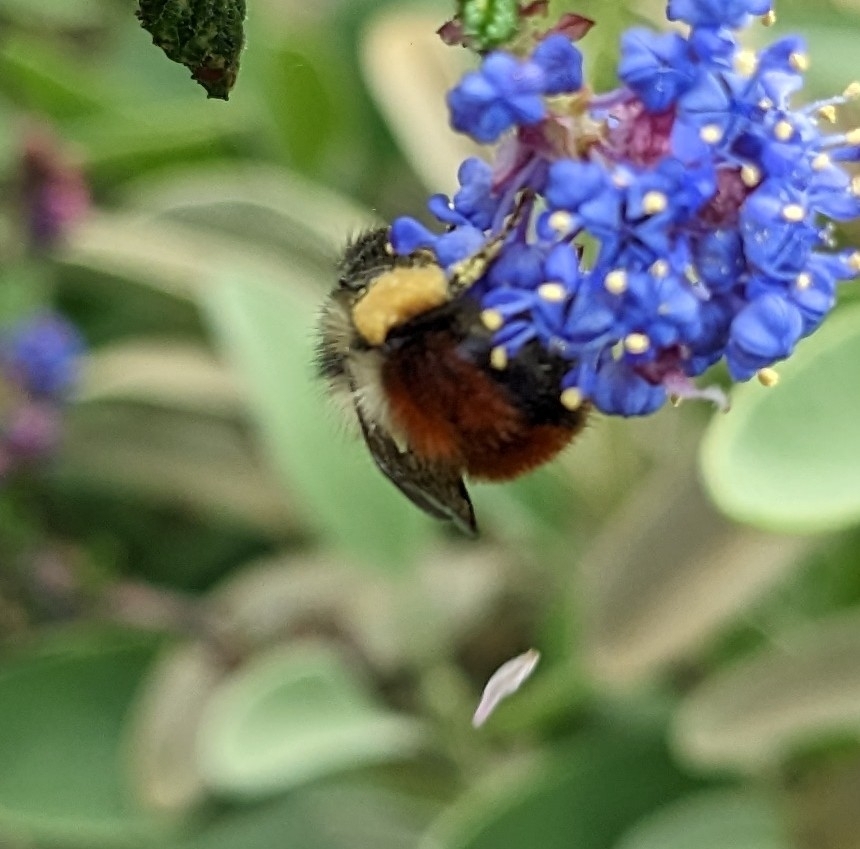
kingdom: Animalia
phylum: Arthropoda
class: Insecta
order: Hymenoptera
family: Apidae
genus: Bombus
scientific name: Bombus melanopygus
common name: Black tail bumble bee
